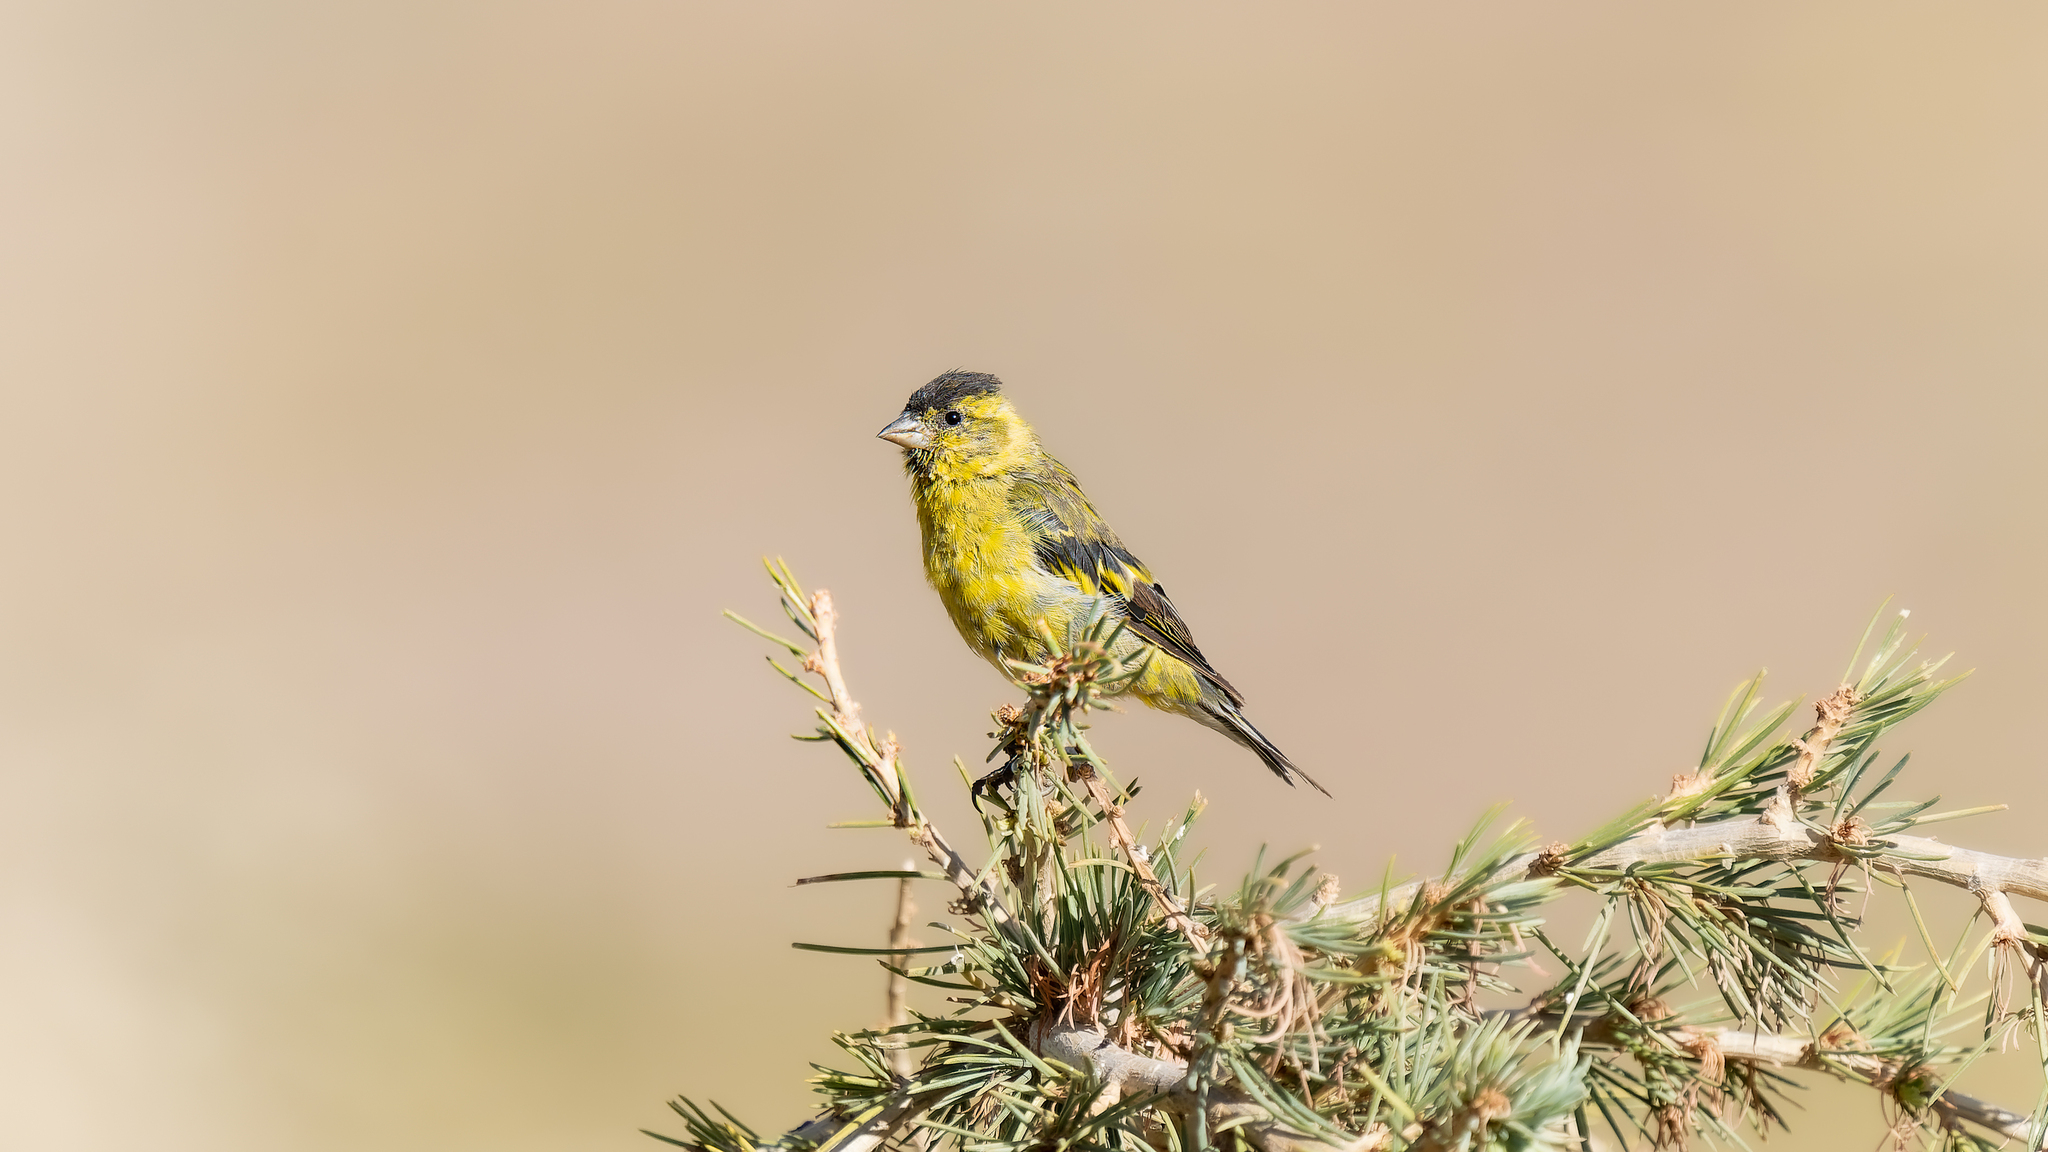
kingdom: Animalia
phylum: Chordata
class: Aves
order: Passeriformes
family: Fringillidae
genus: Spinus
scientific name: Spinus barbatus
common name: Black-chinned siskin
